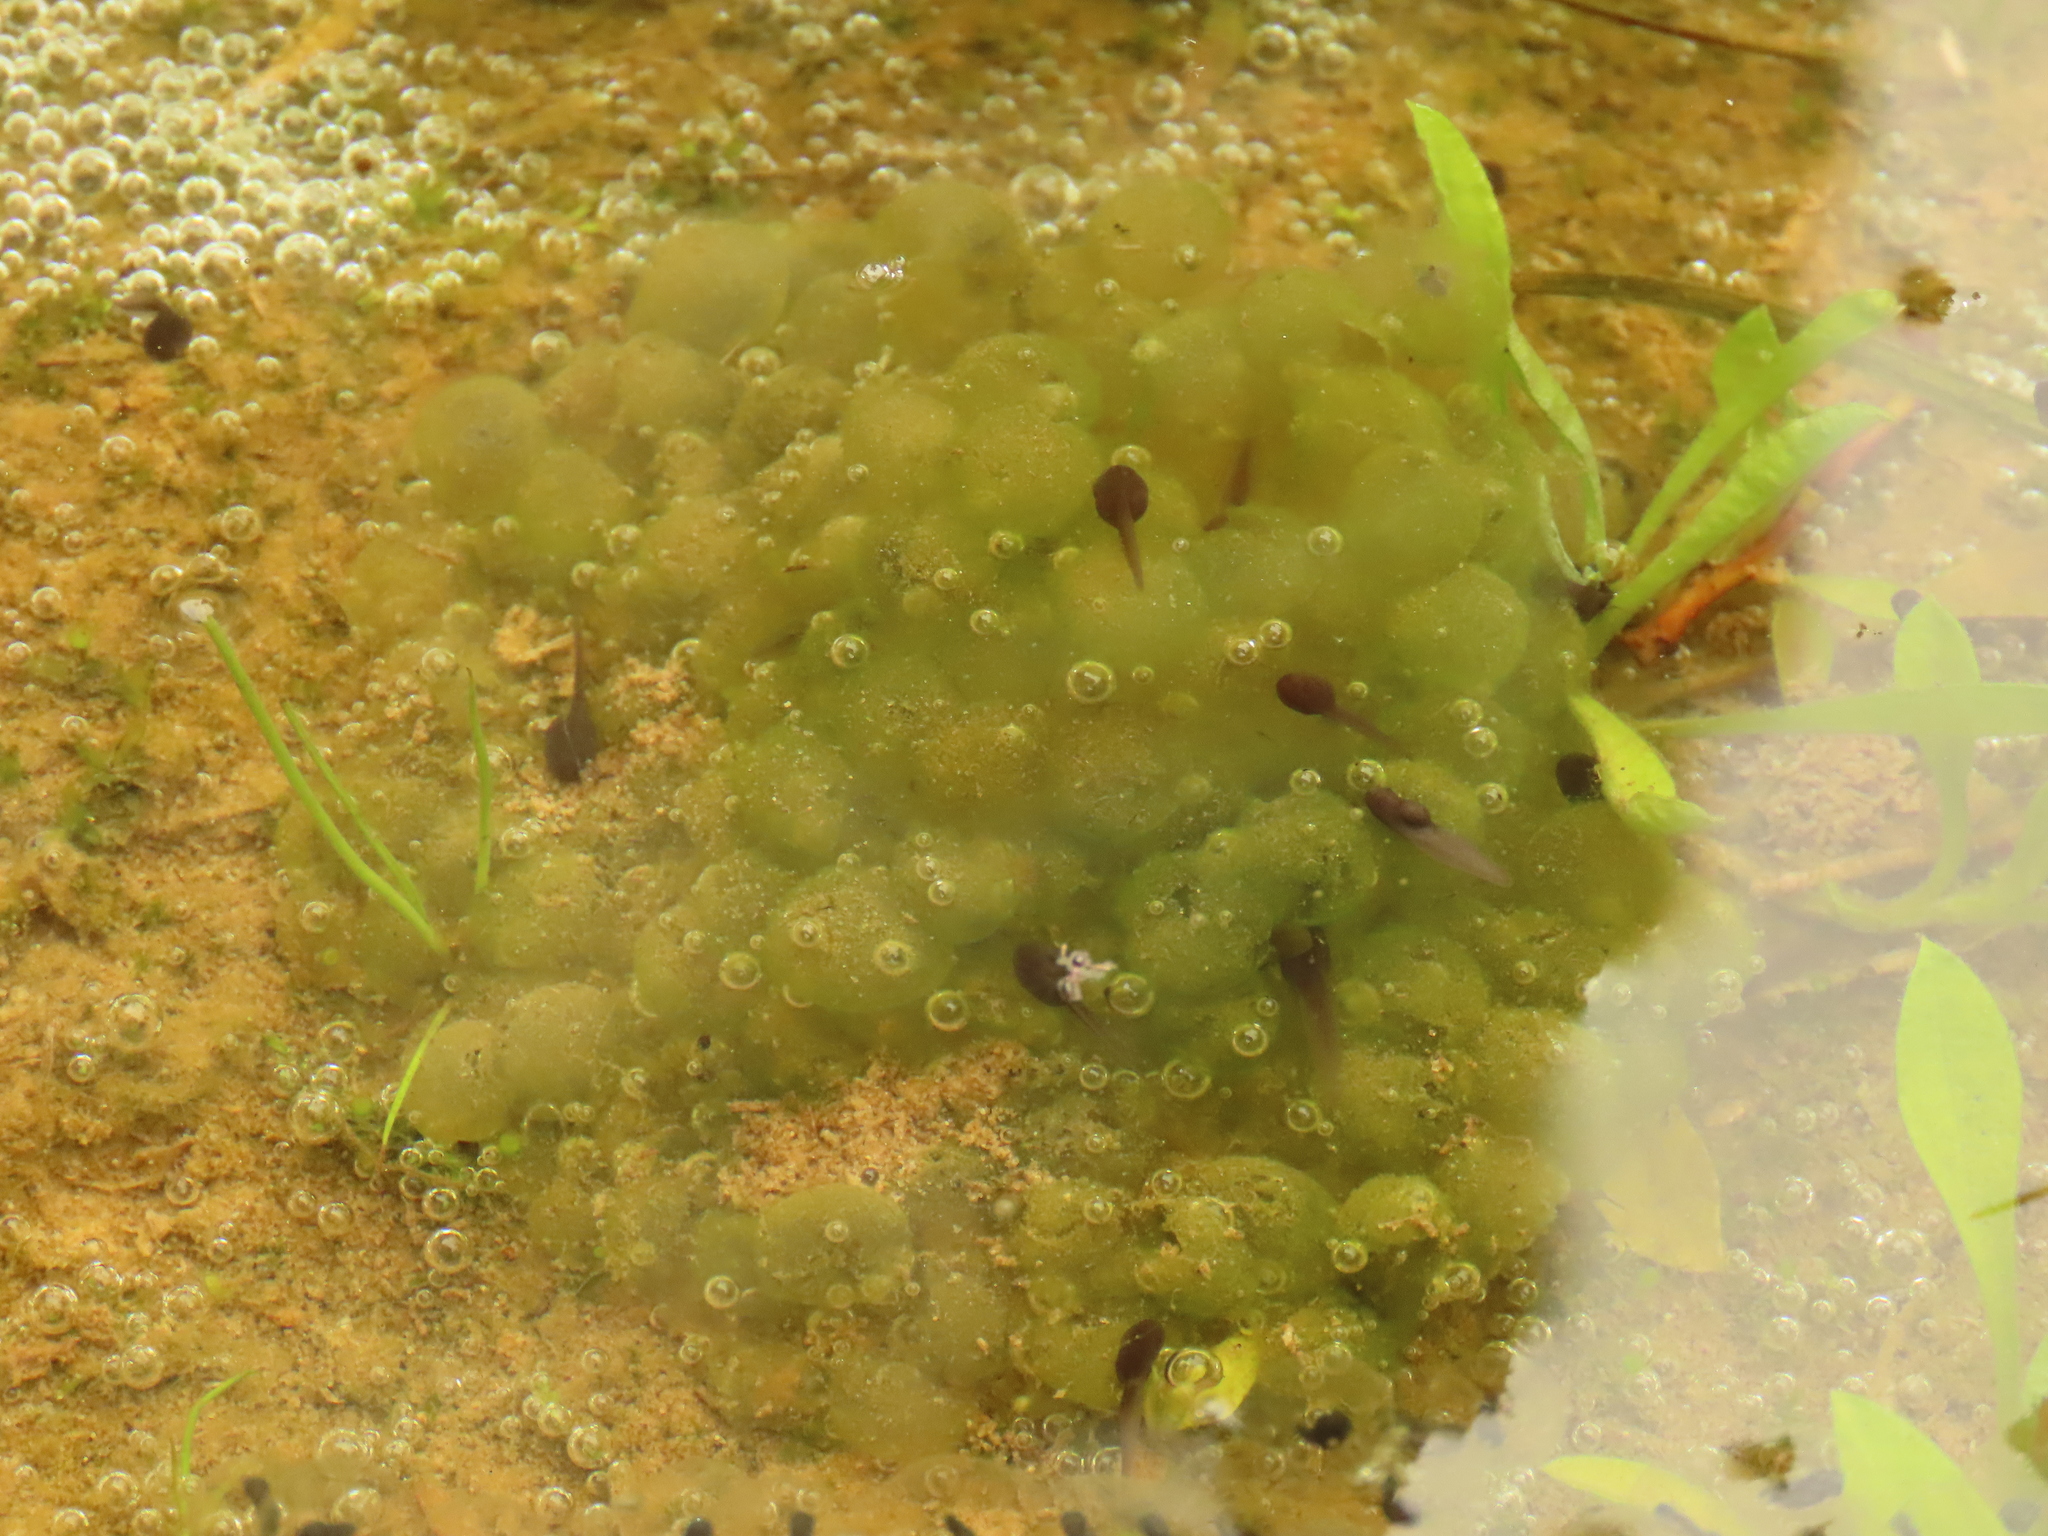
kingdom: Animalia
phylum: Chordata
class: Amphibia
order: Anura
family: Ranidae
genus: Rana
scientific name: Rana longicrus
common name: Long-legged brown frog
